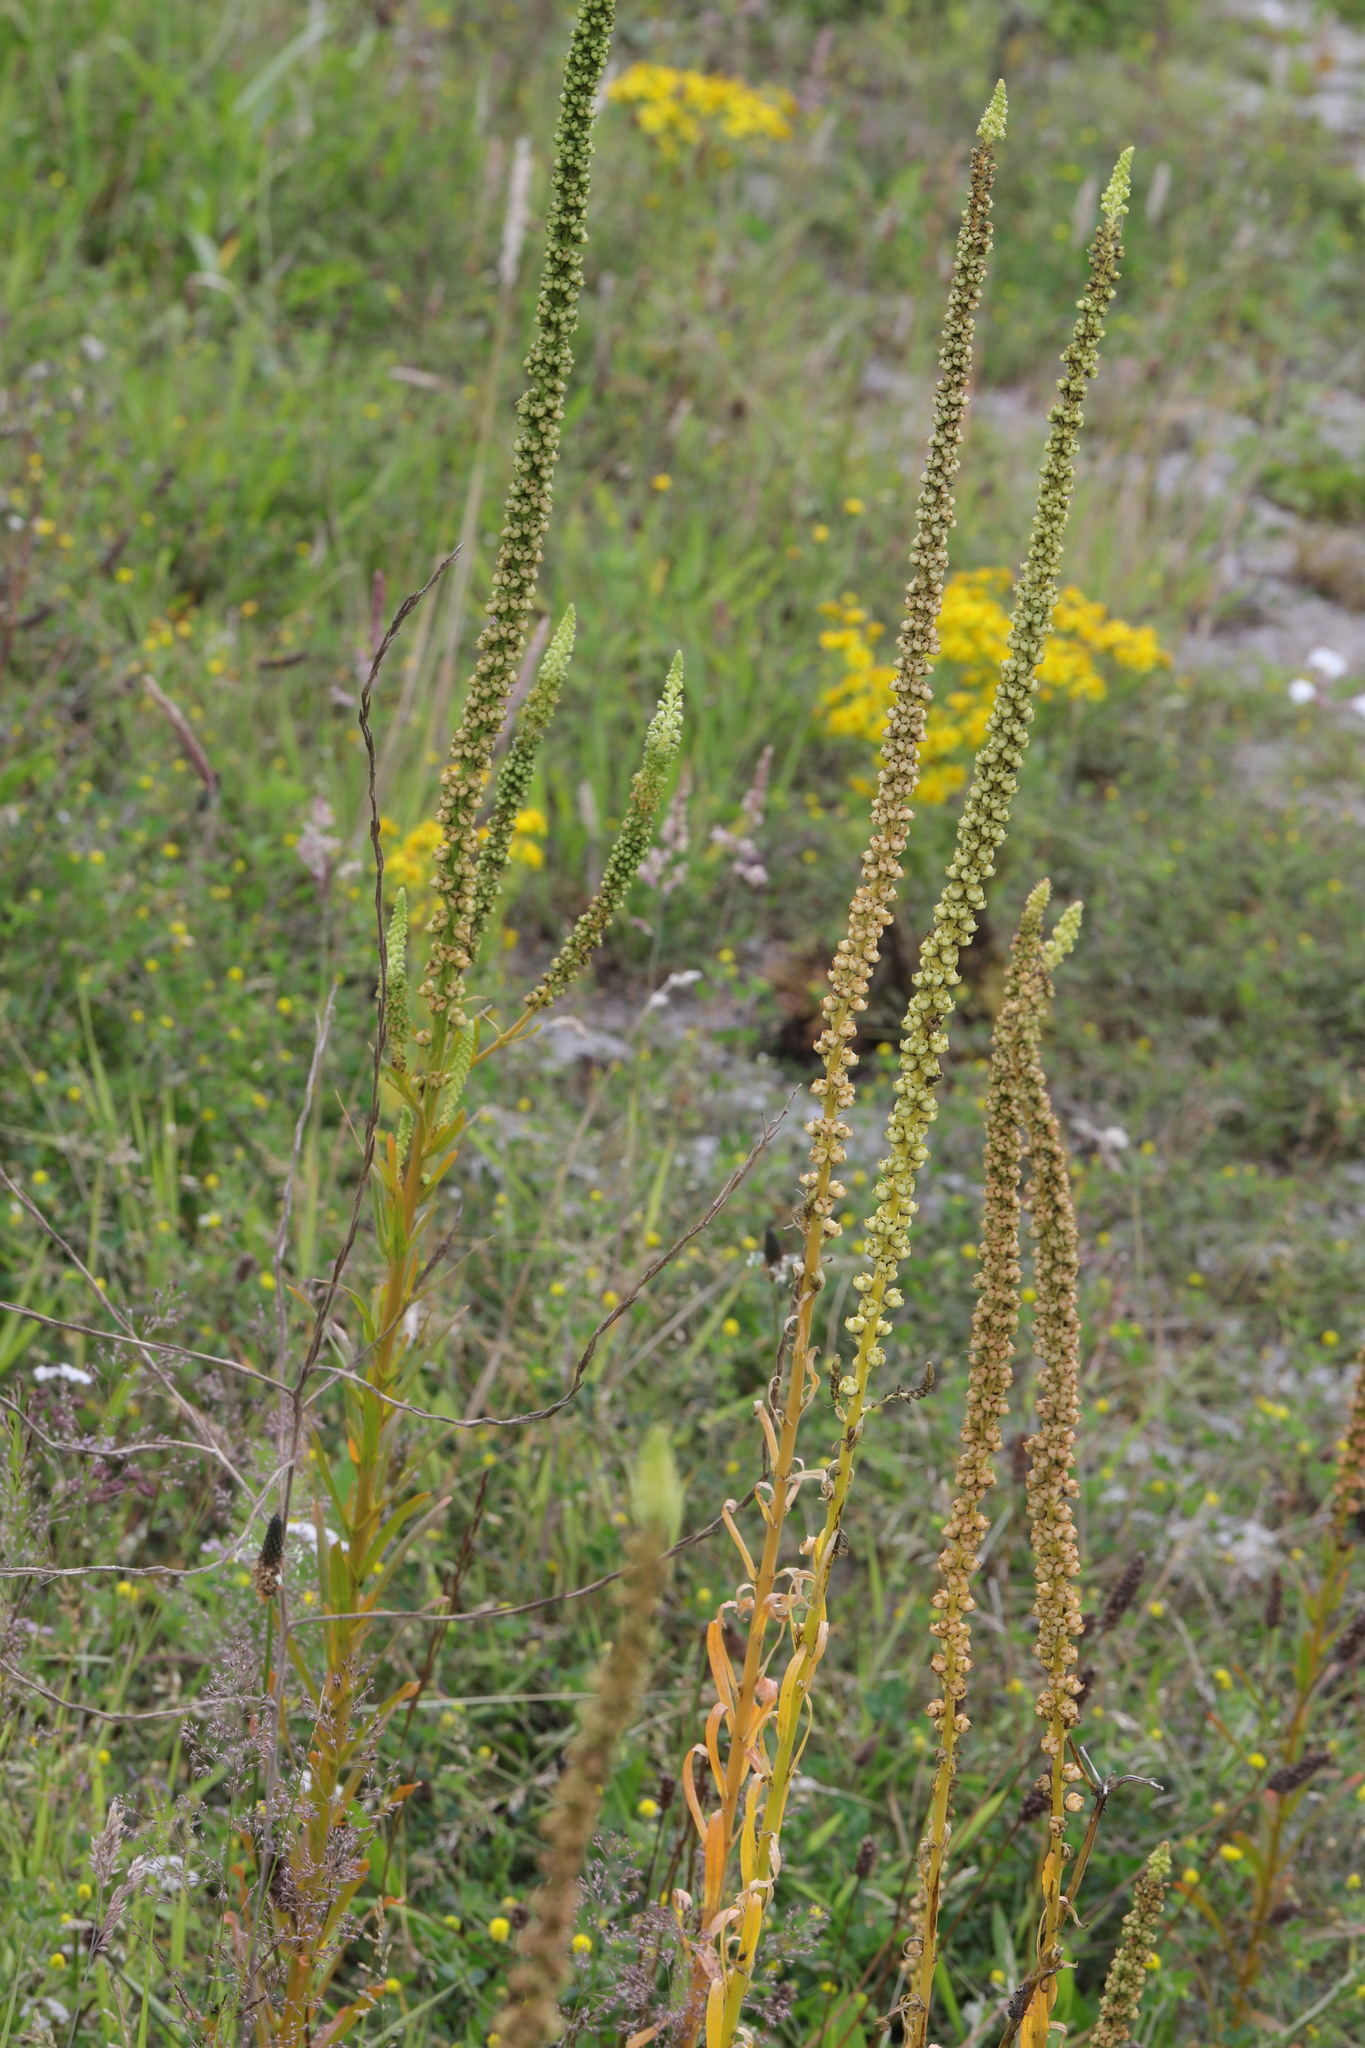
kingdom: Plantae
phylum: Tracheophyta
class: Magnoliopsida
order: Brassicales
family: Resedaceae
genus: Reseda
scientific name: Reseda luteola
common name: Weld
